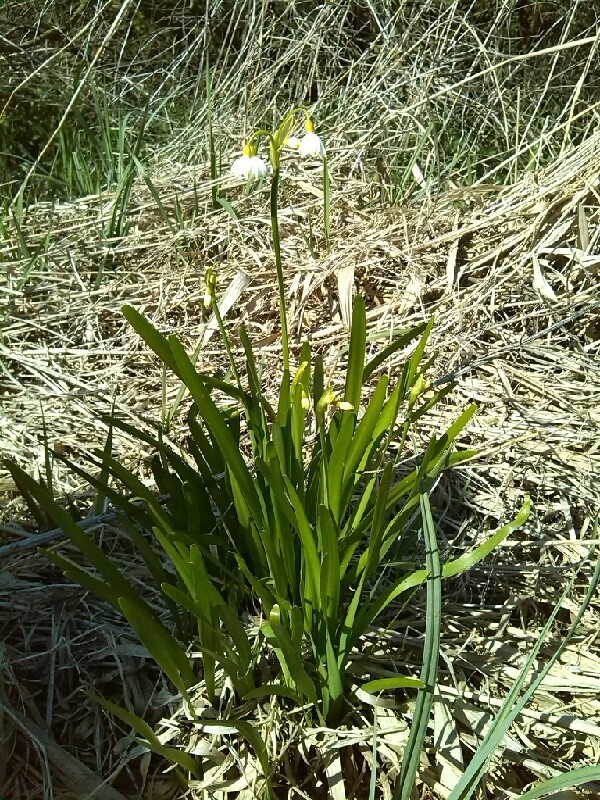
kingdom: Plantae
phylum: Tracheophyta
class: Liliopsida
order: Asparagales
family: Amaryllidaceae
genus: Leucojum
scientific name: Leucojum aestivum
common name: Summer snowflake
